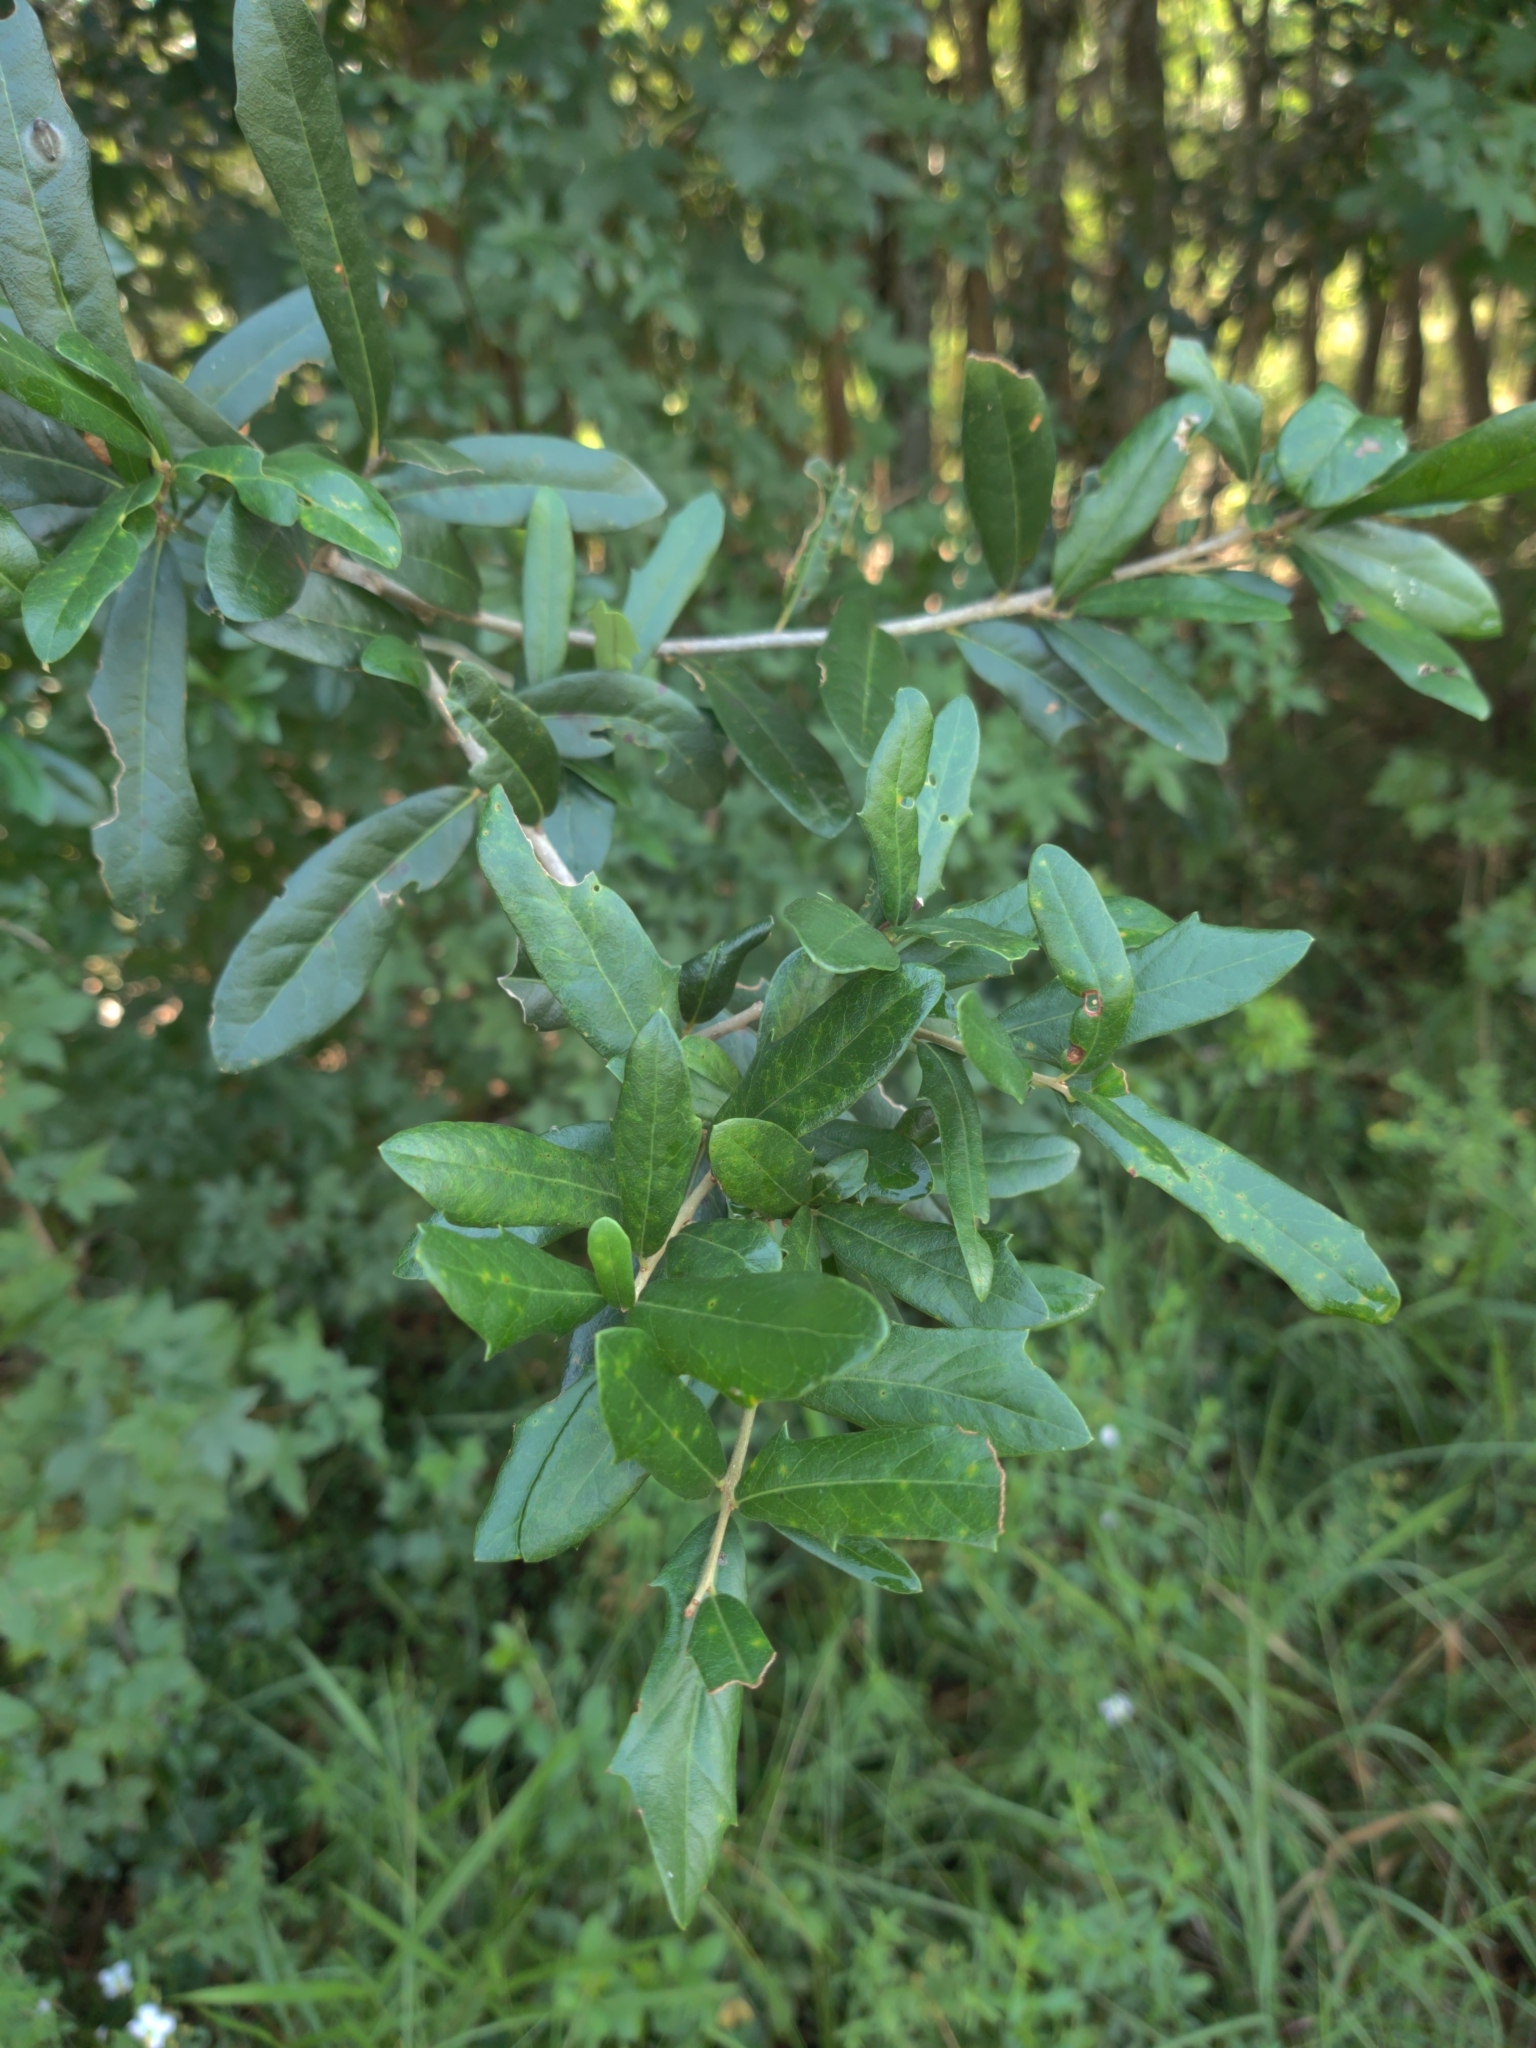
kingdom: Plantae
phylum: Tracheophyta
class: Magnoliopsida
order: Fagales
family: Fagaceae
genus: Quercus
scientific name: Quercus virginiana
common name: Southern live oak
